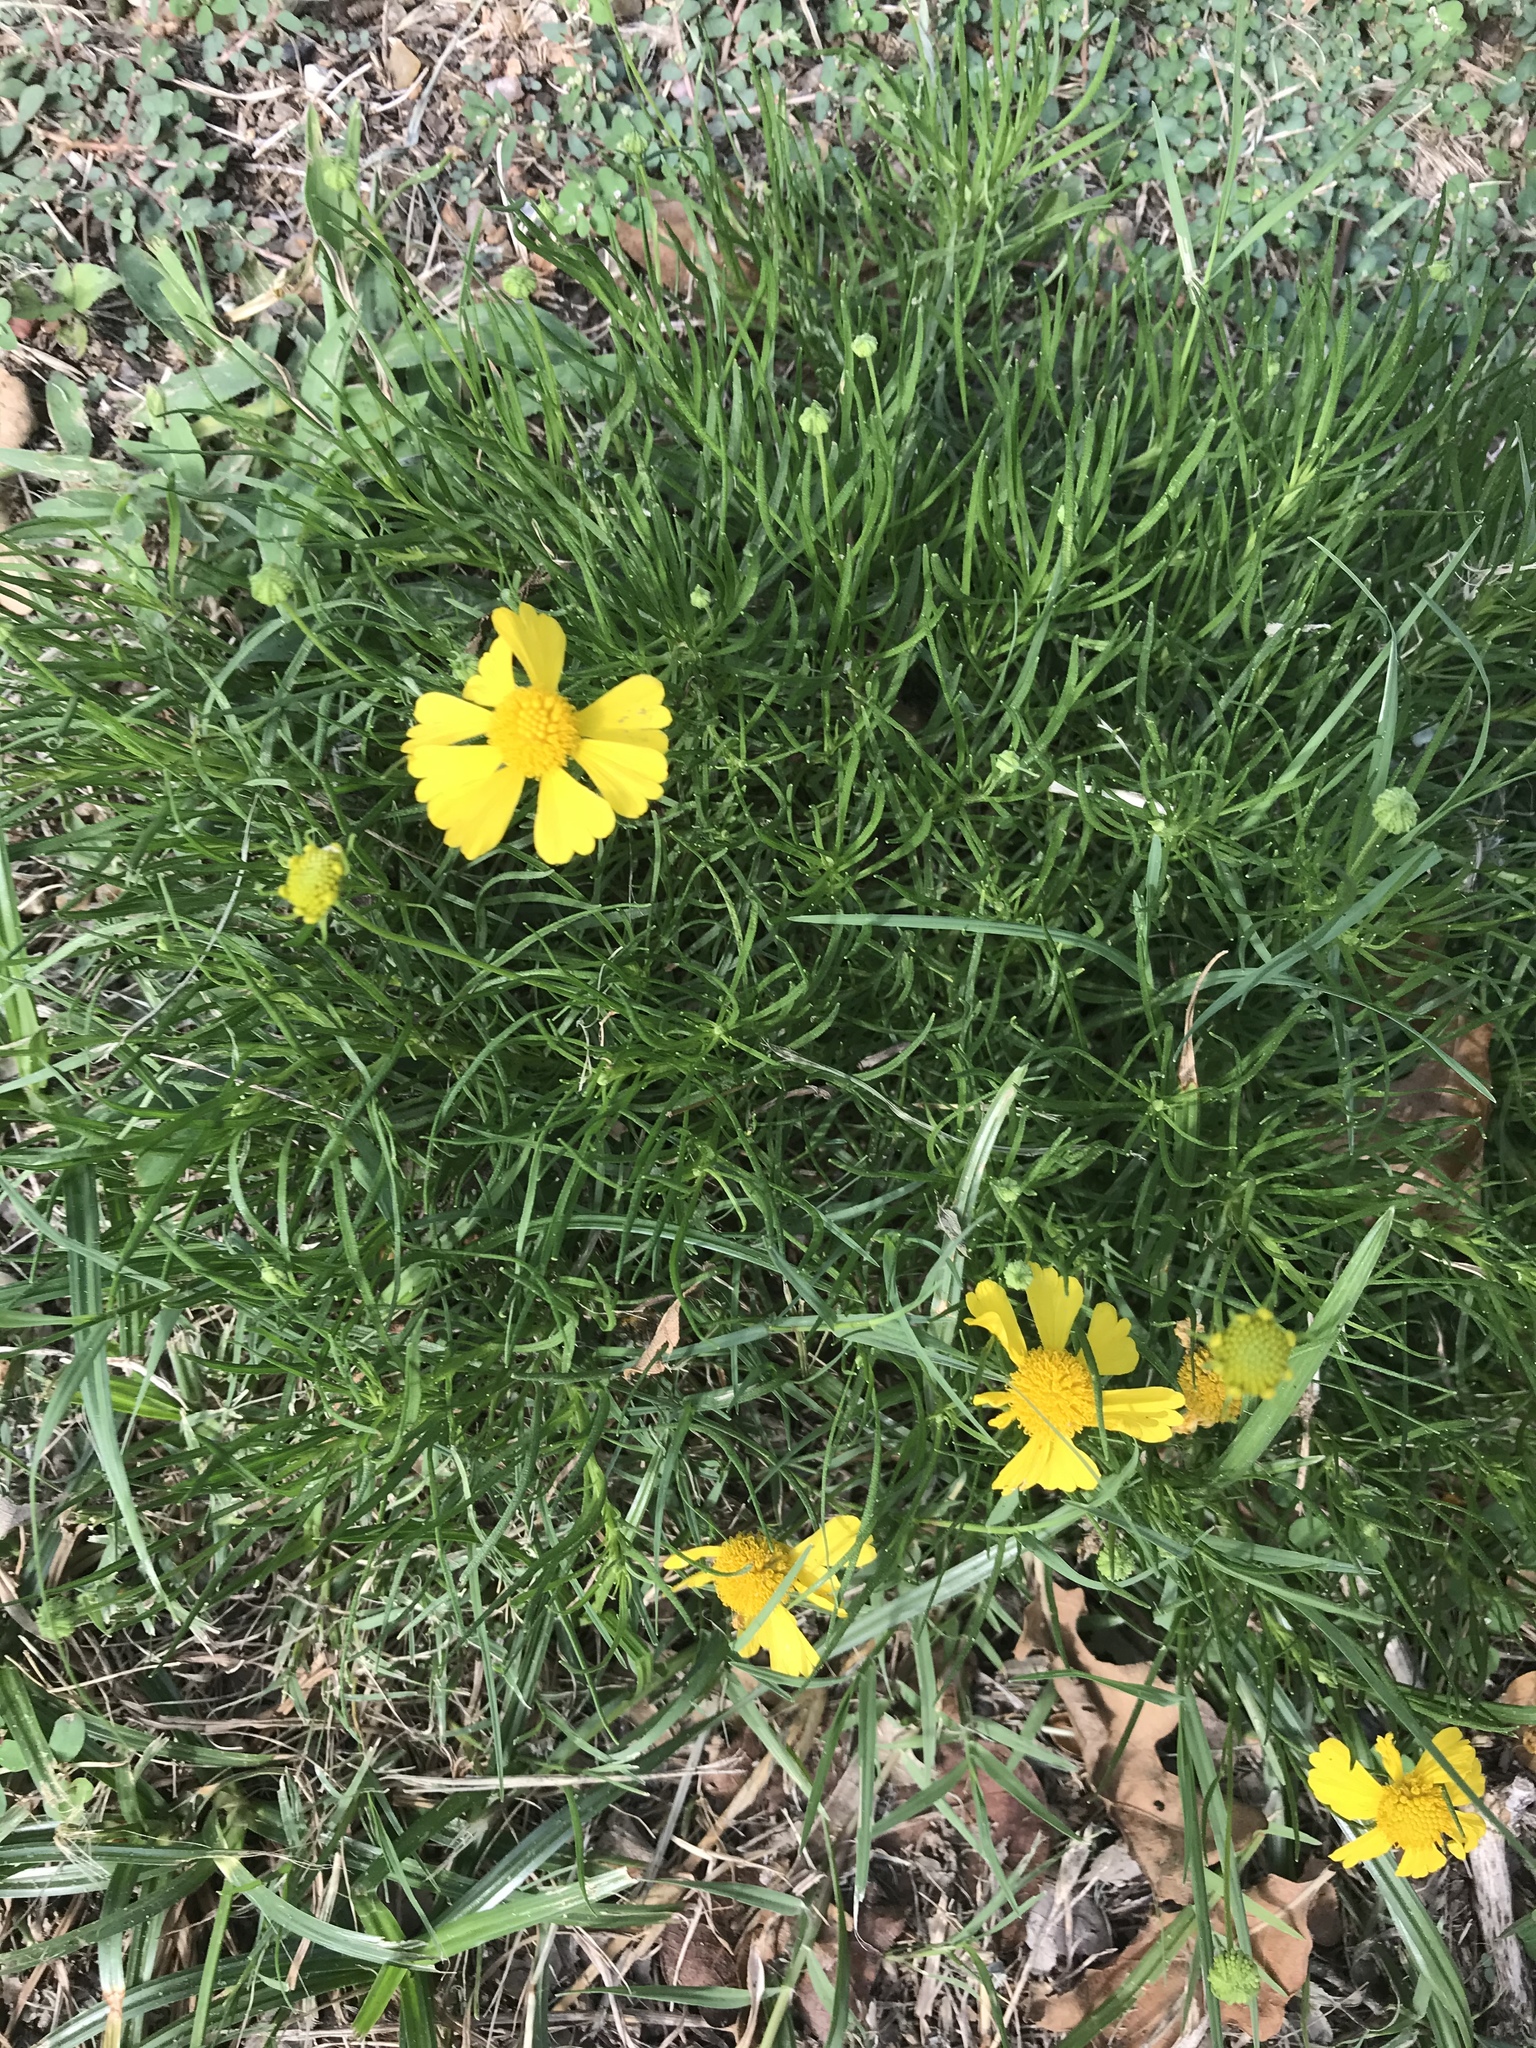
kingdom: Plantae
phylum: Tracheophyta
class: Magnoliopsida
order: Asterales
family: Asteraceae
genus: Helenium
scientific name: Helenium amarum
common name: Bitter sneezeweed
